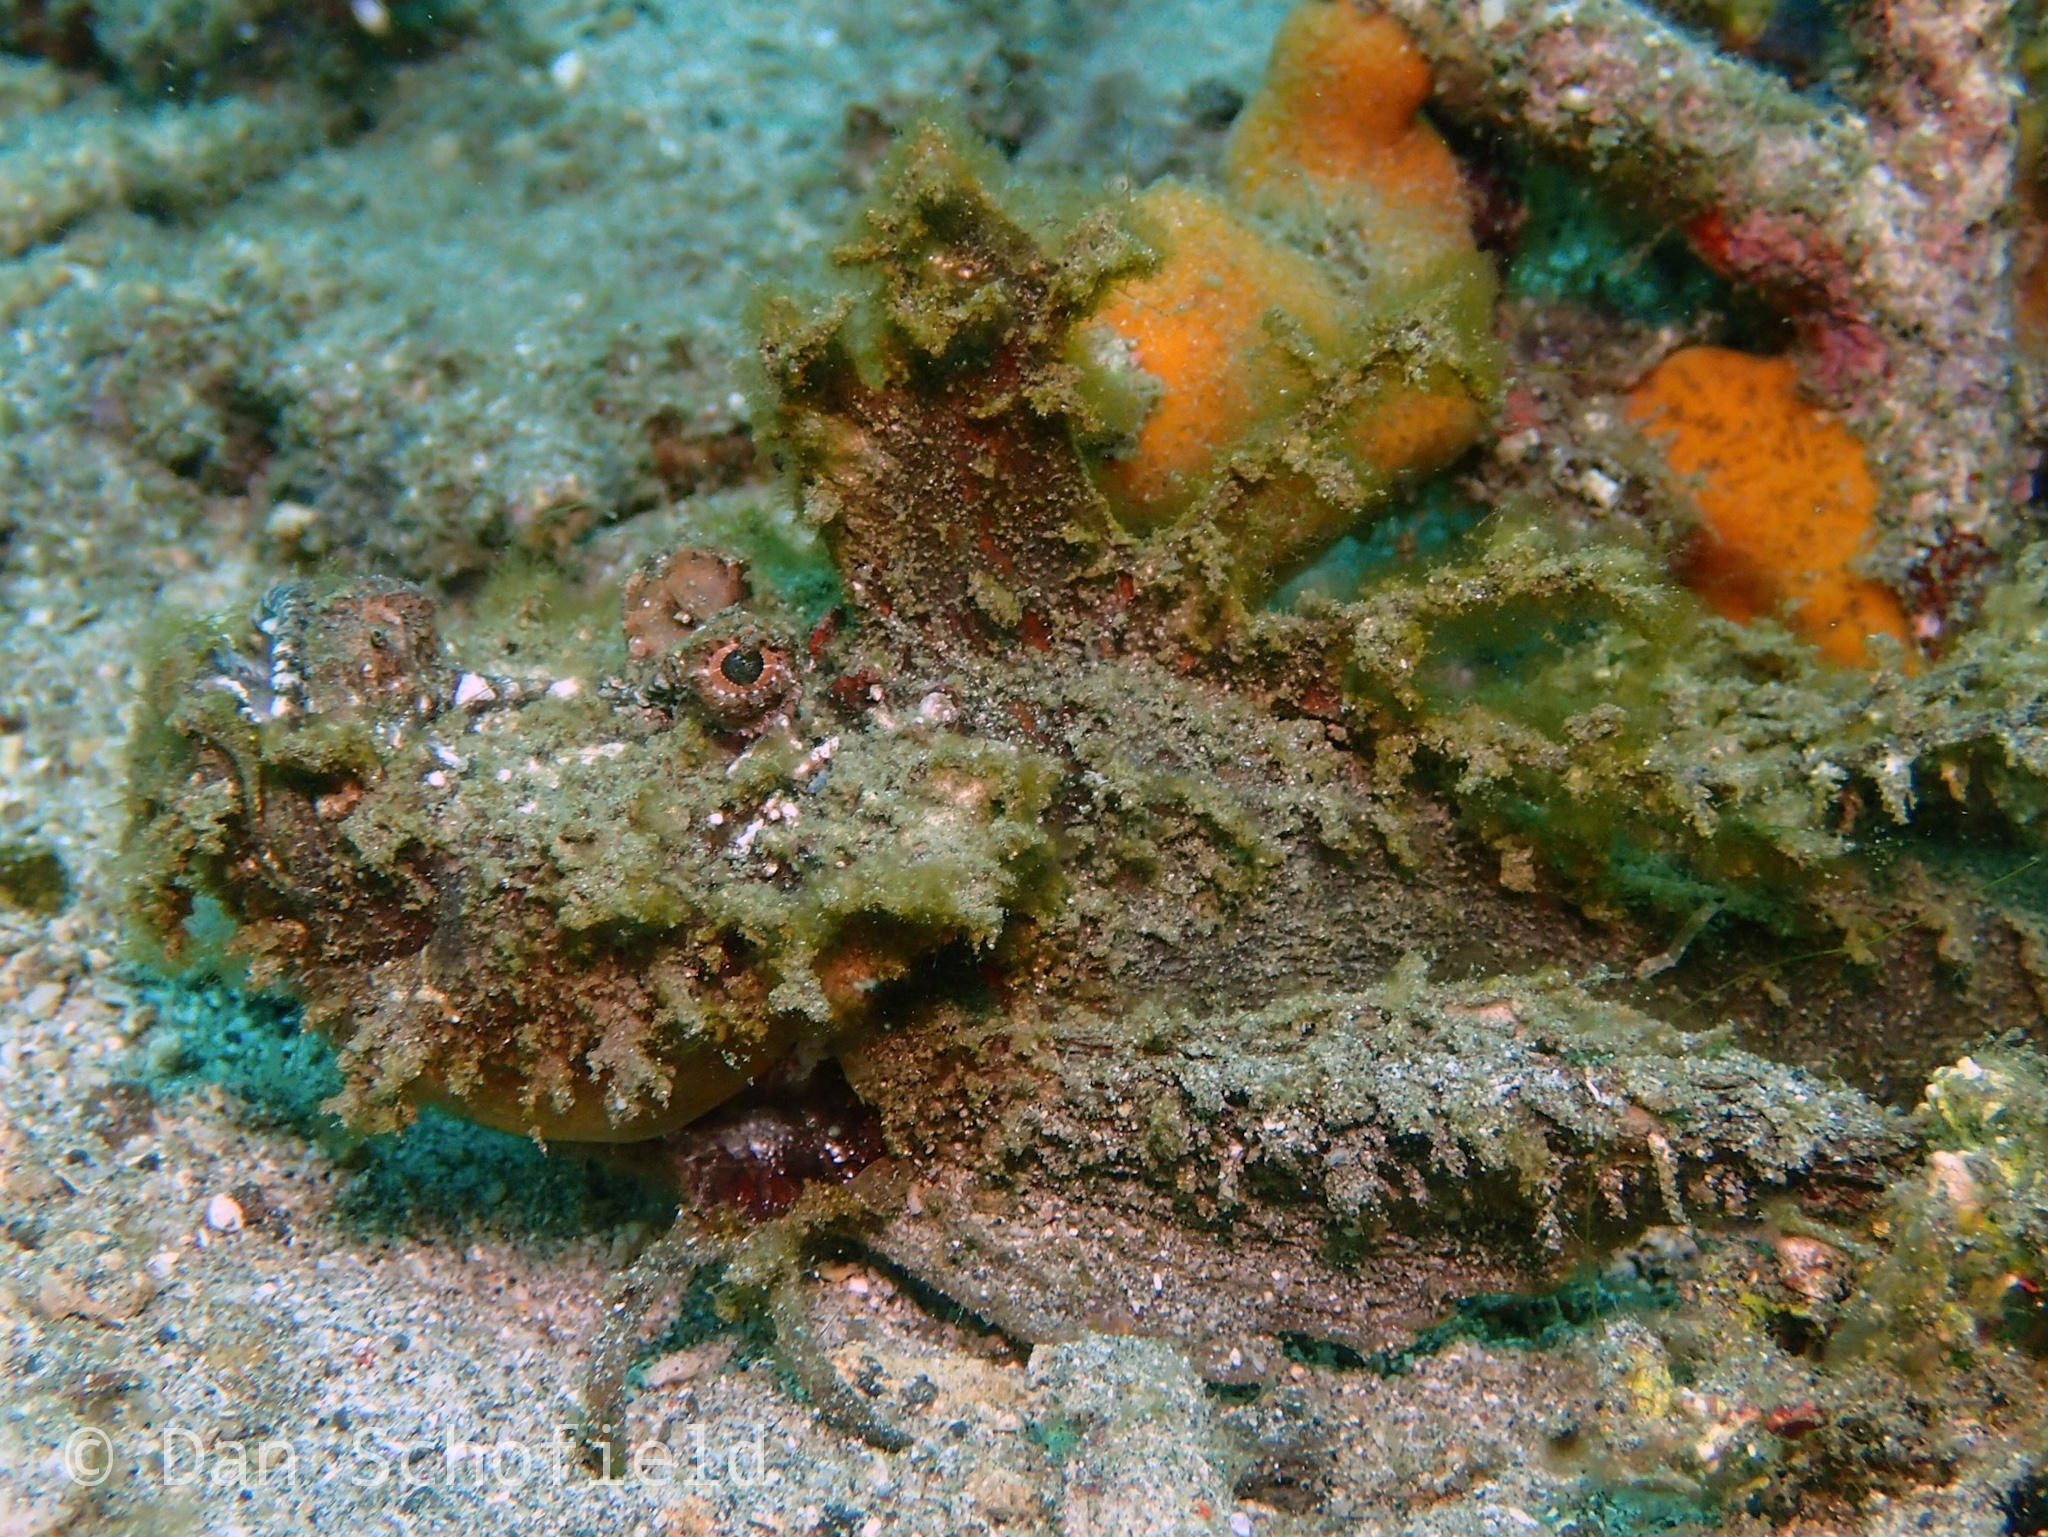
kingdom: Animalia
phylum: Chordata
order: Scorpaeniformes
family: Synanceiidae
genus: Inimicus
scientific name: Inimicus didactylus
